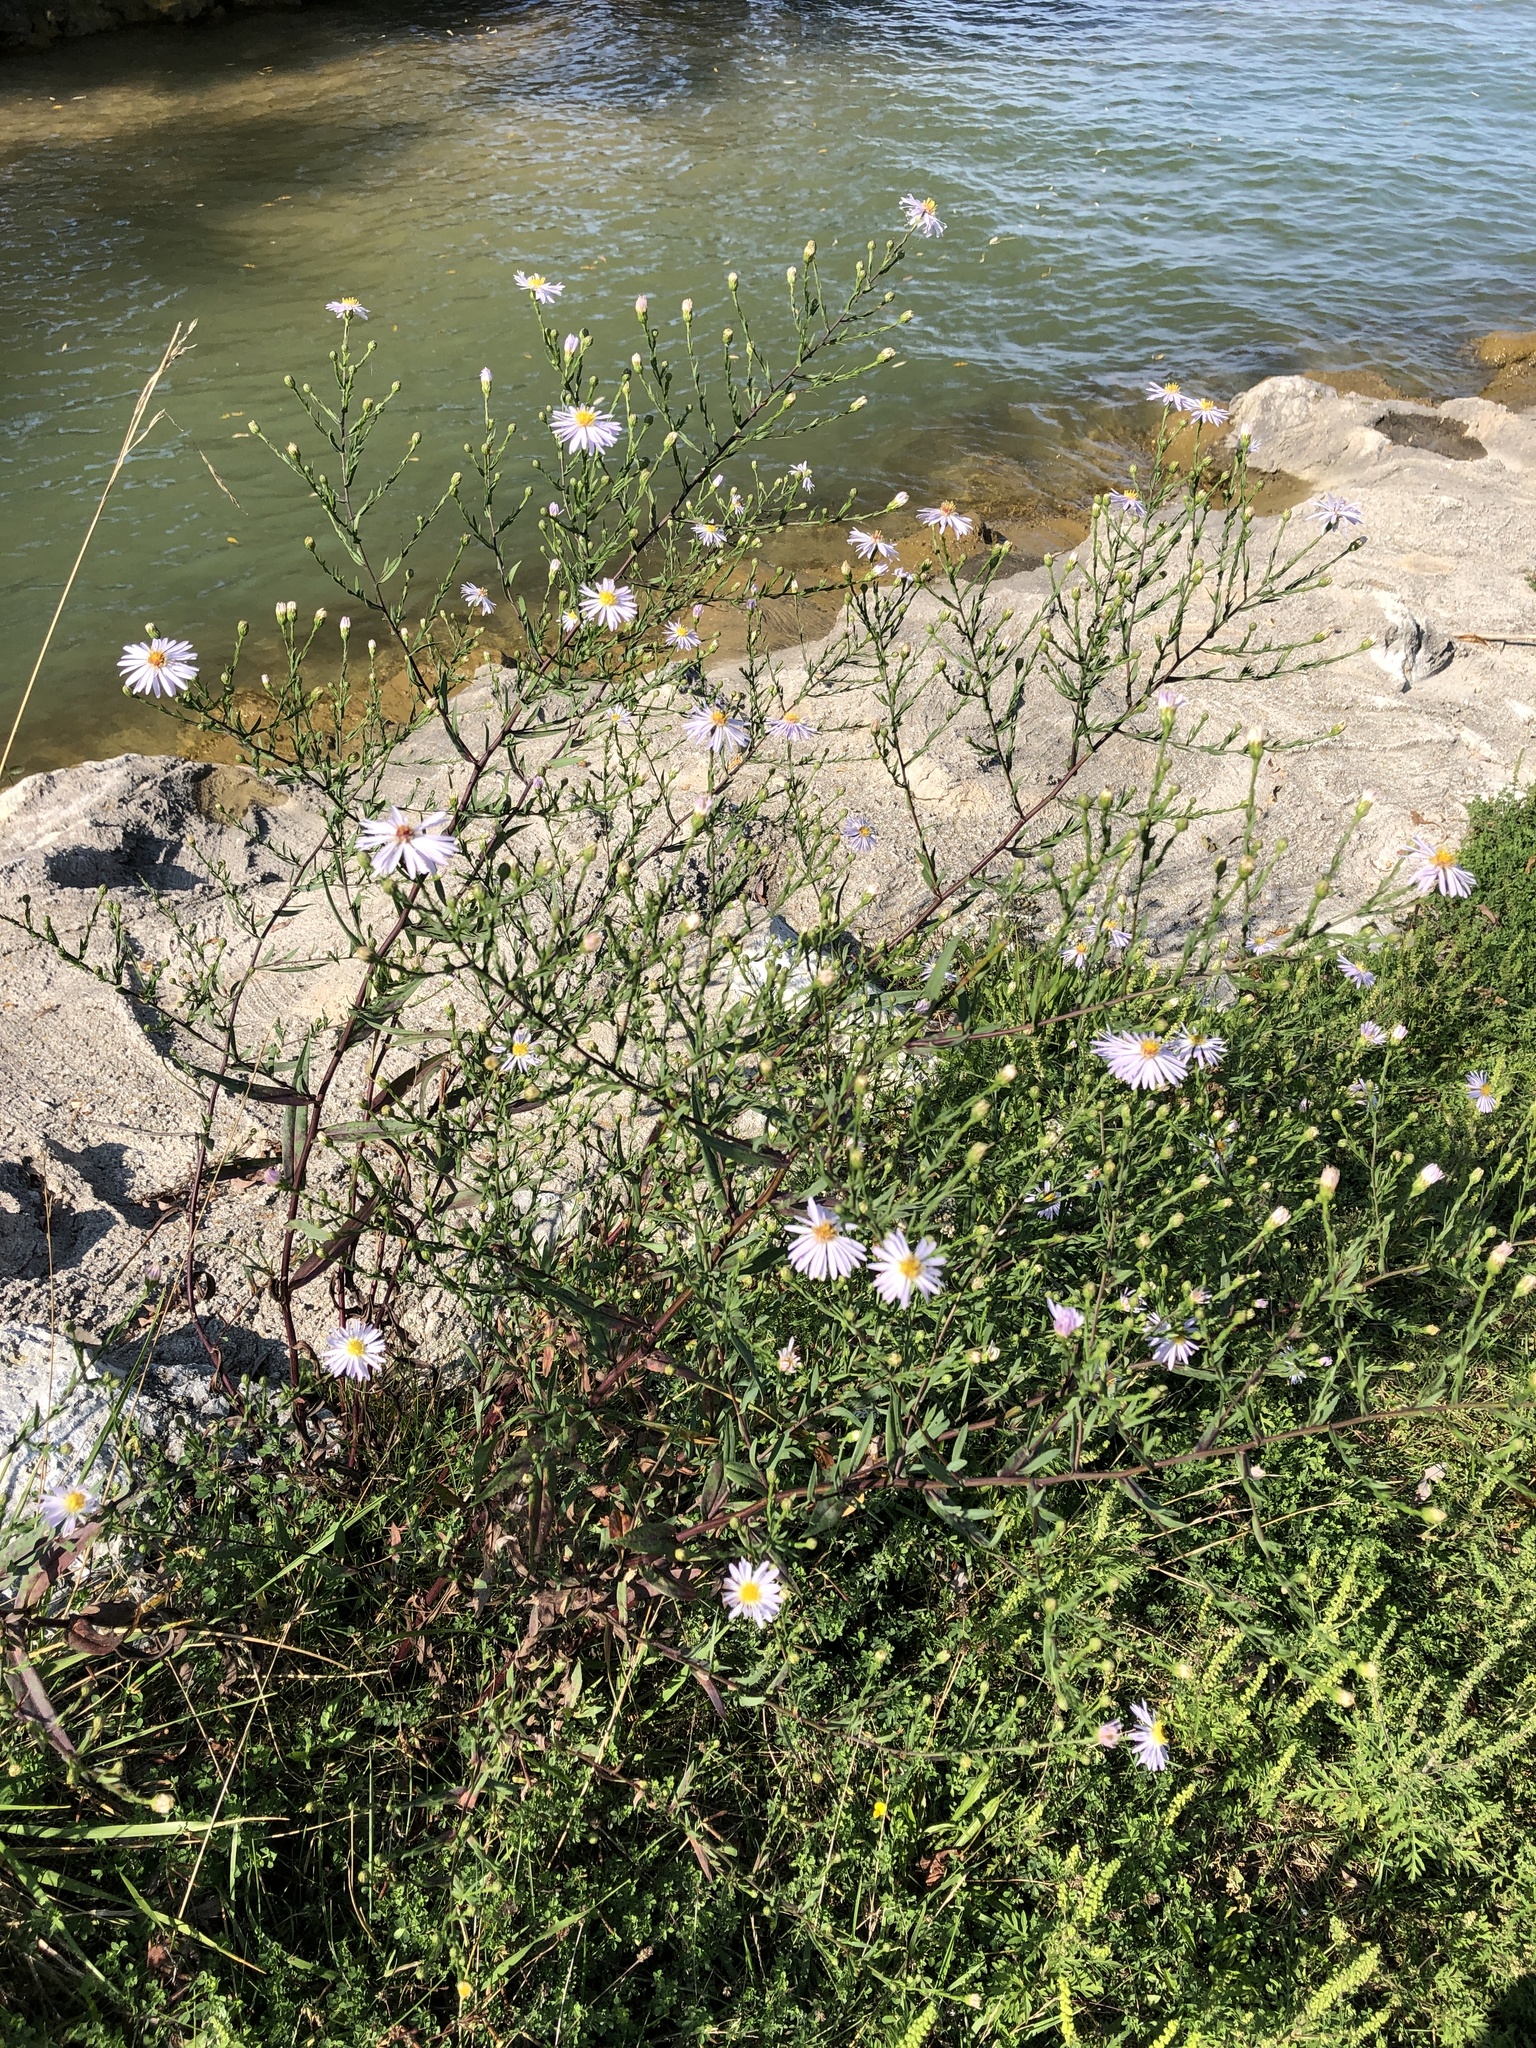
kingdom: Plantae
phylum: Tracheophyta
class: Magnoliopsida
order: Asterales
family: Asteraceae
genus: Symphyotrichum
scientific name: Symphyotrichum lanceolatum
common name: Panicled aster
